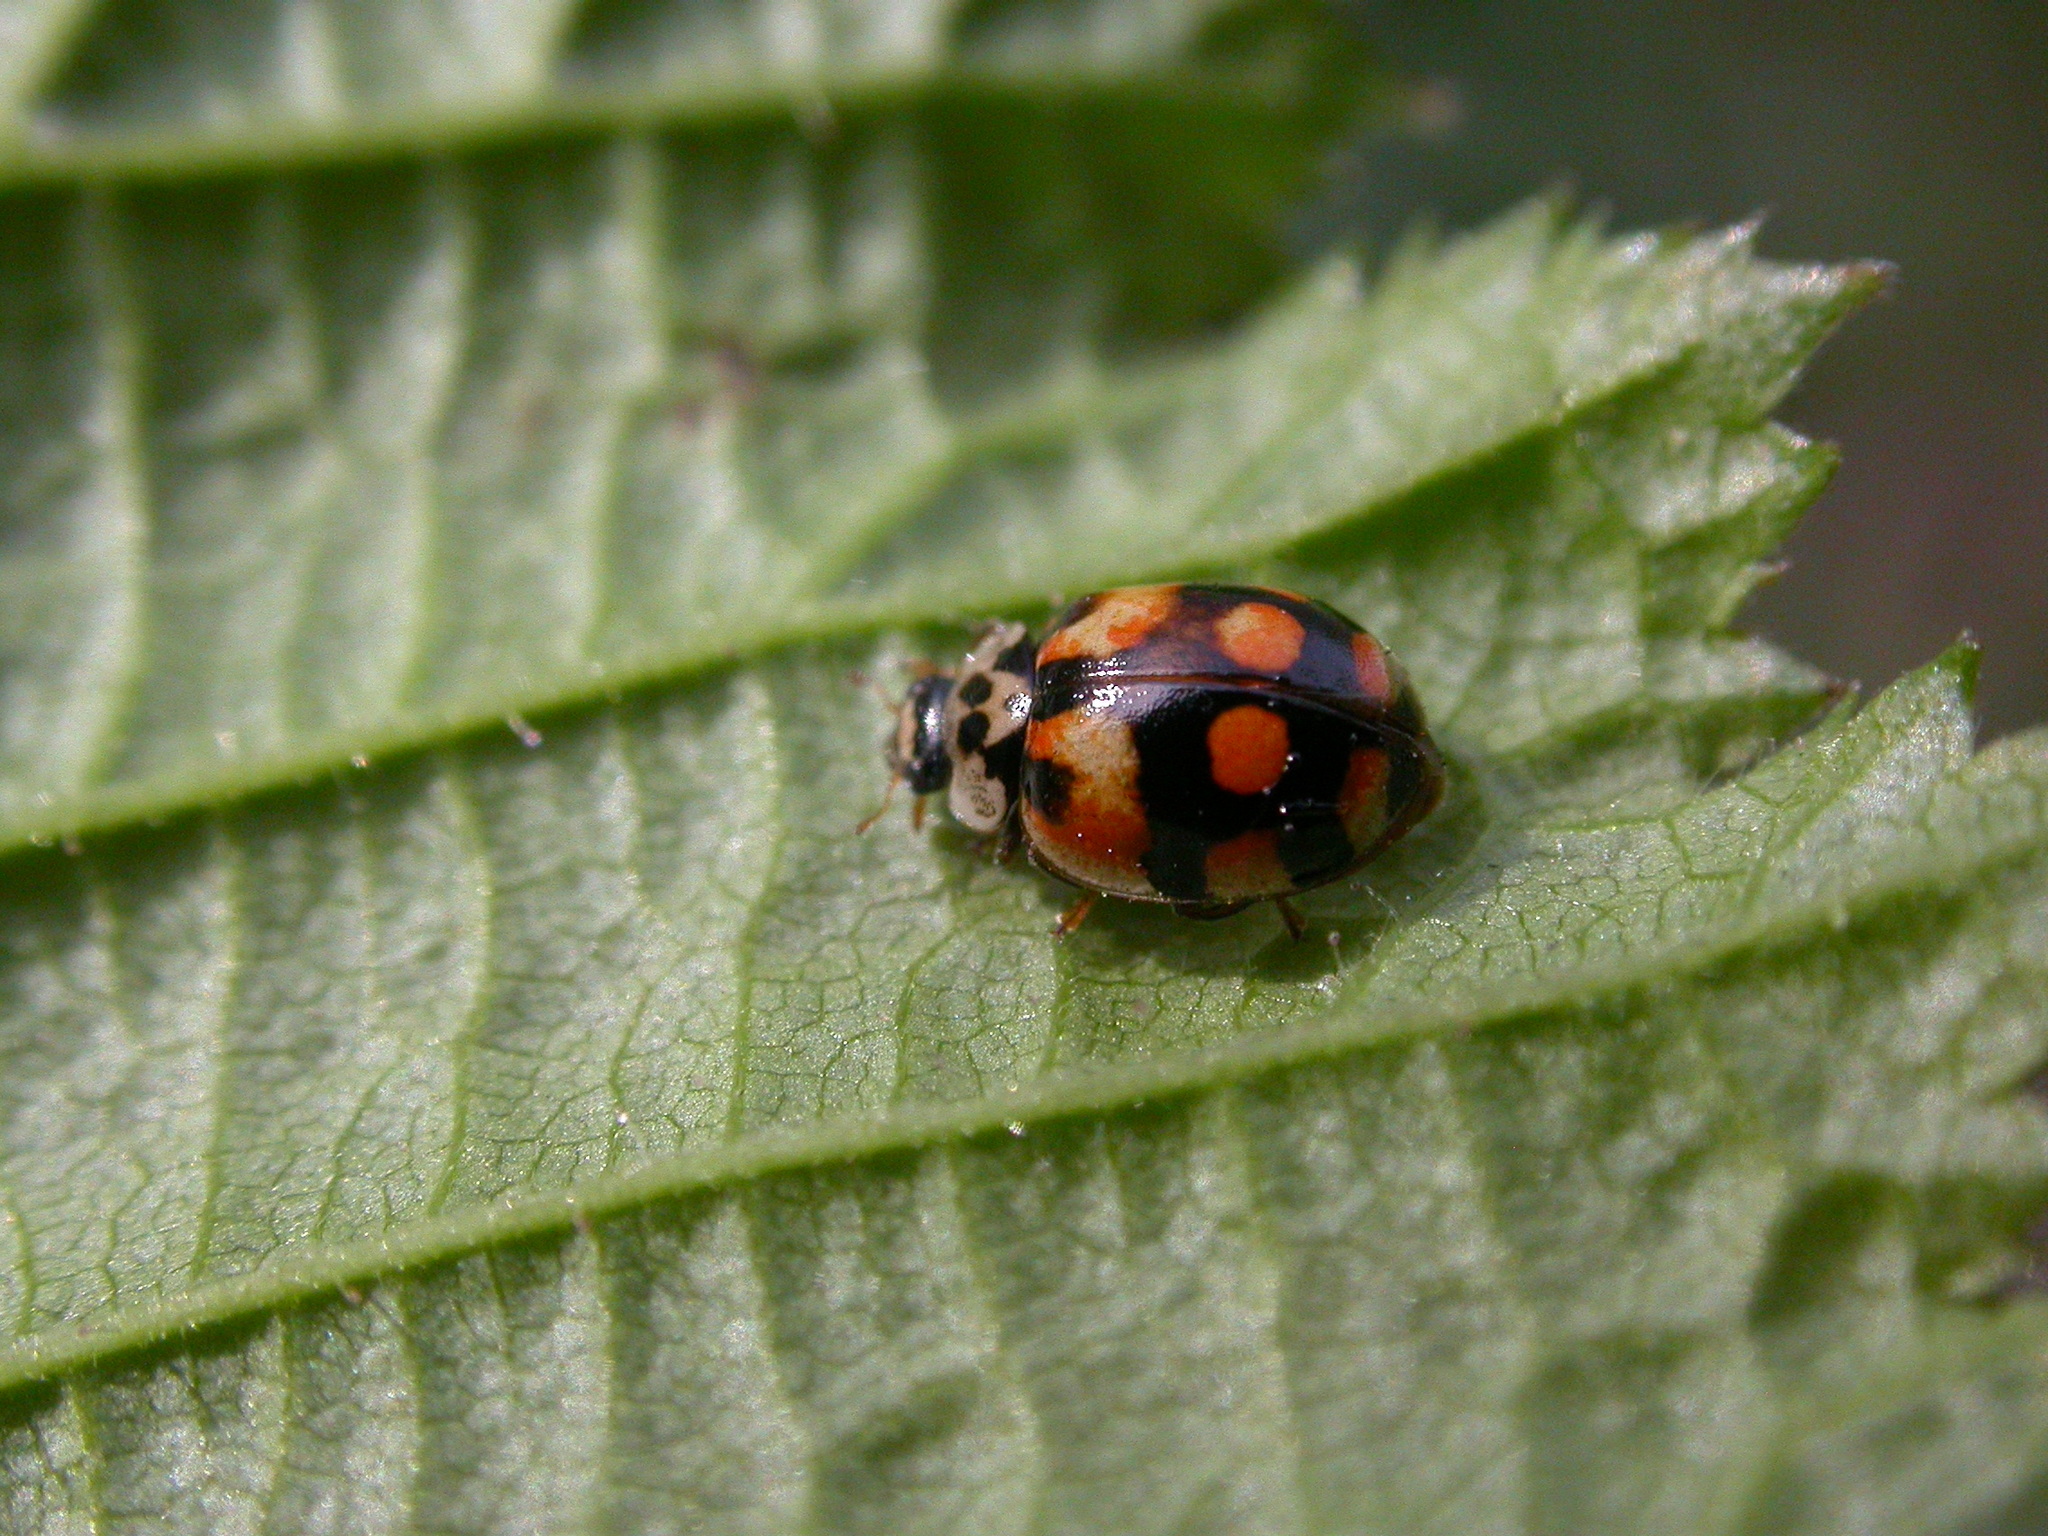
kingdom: Animalia
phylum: Arthropoda
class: Insecta
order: Coleoptera
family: Coccinellidae
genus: Adalia
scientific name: Adalia decempunctata
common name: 10-spot ladybird
